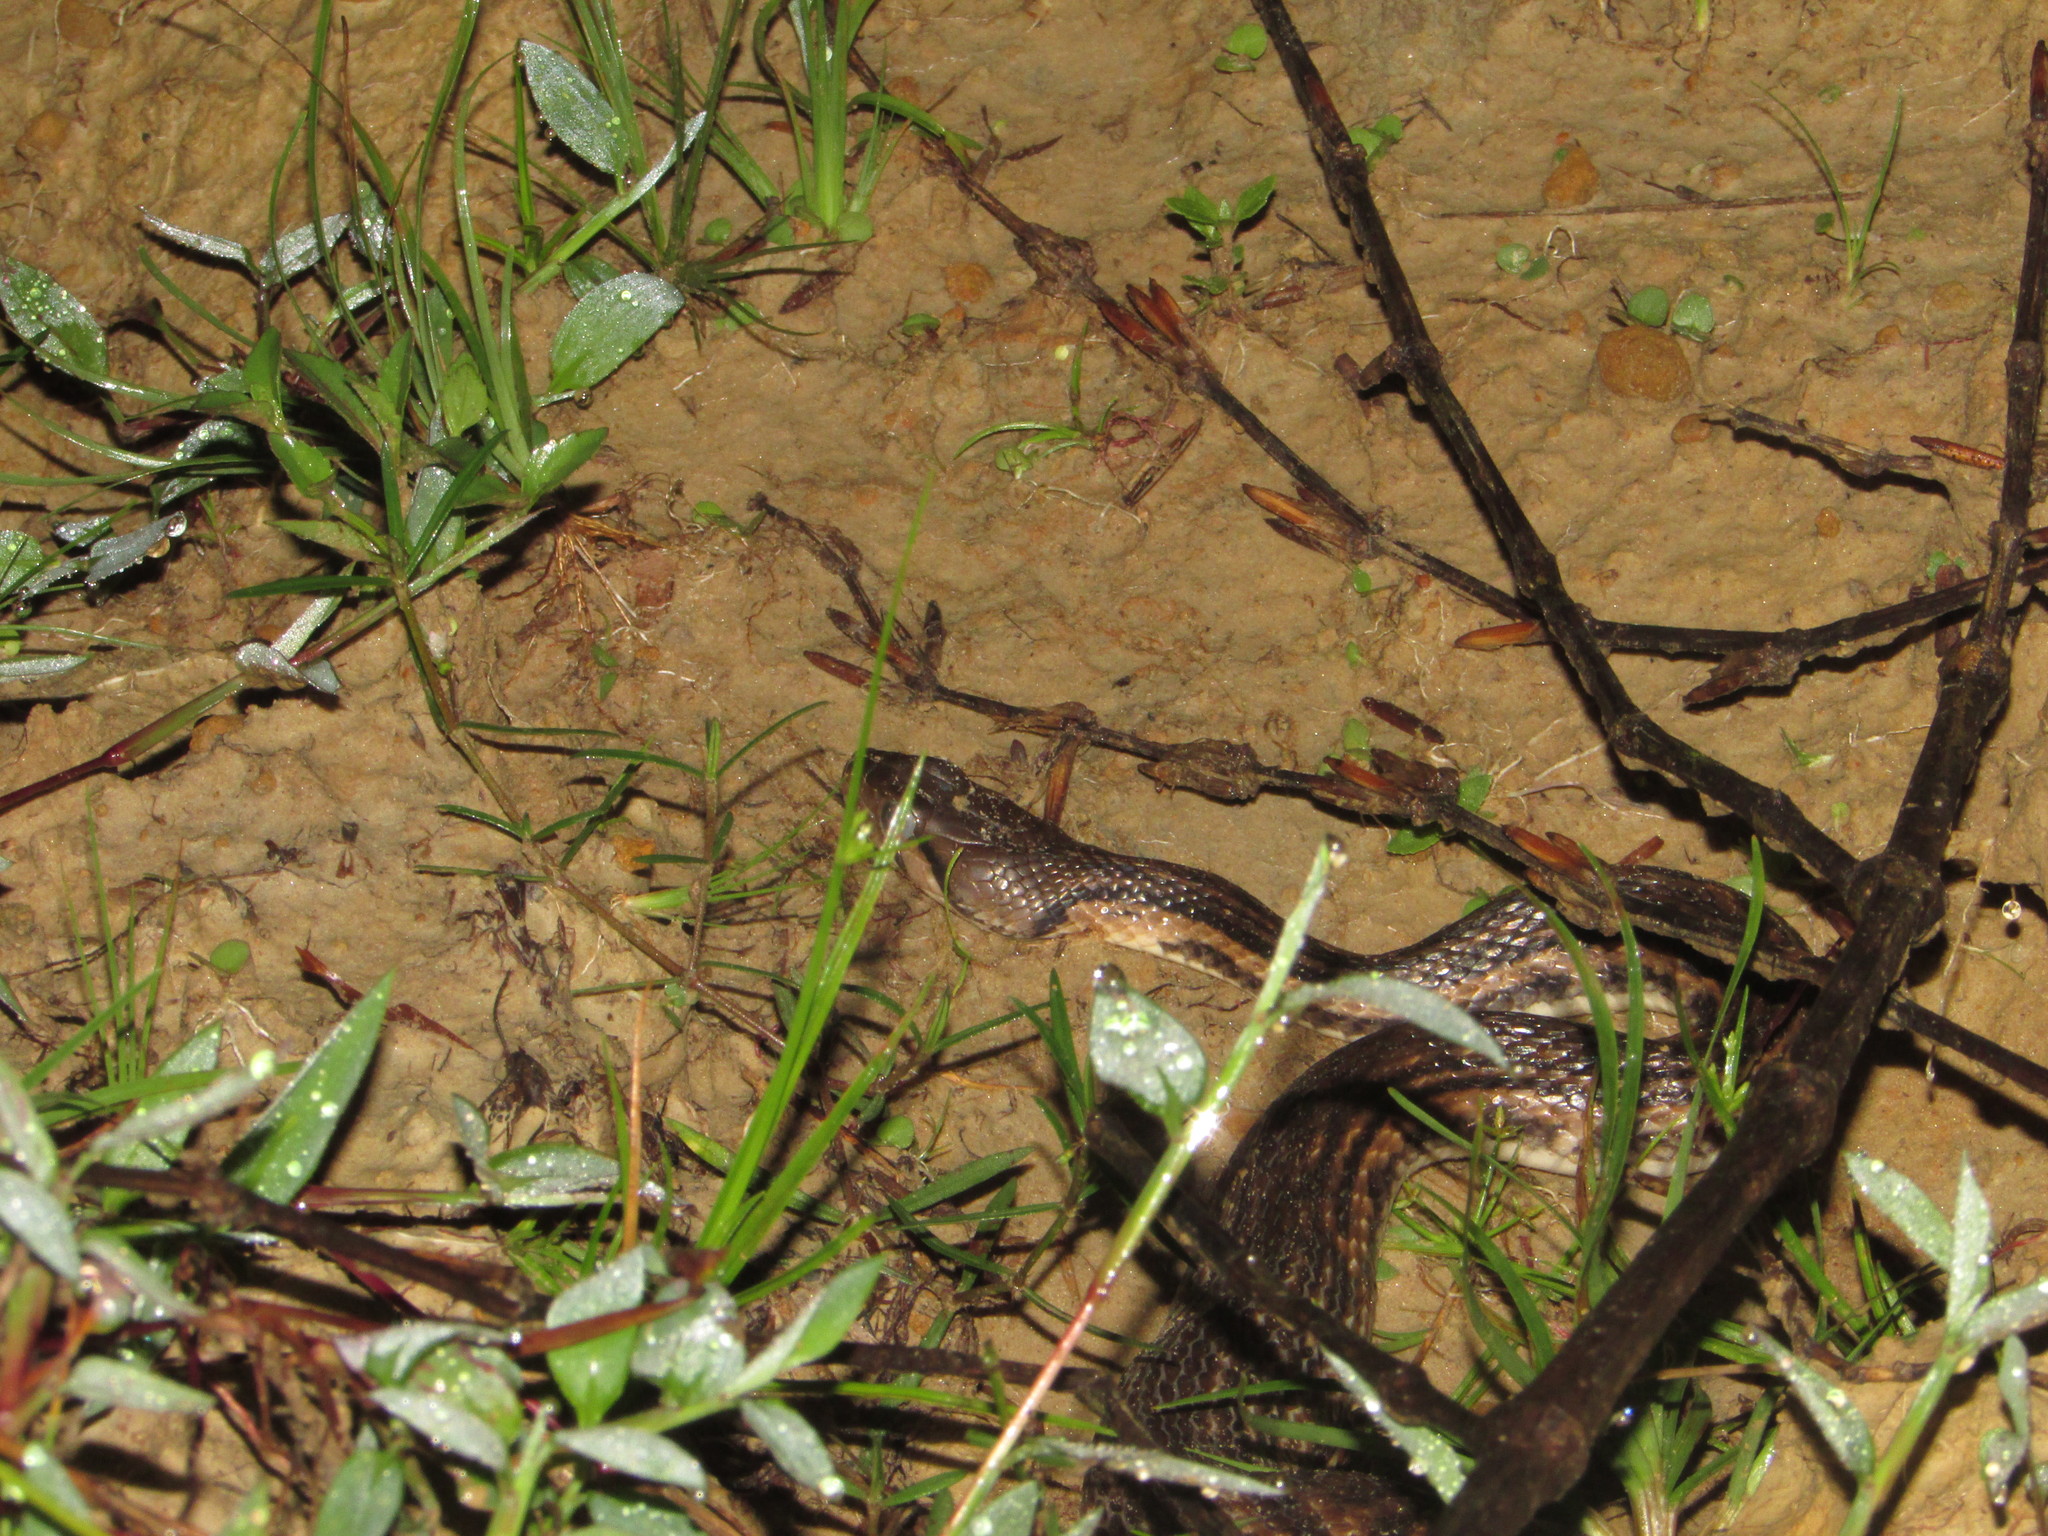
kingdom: Animalia
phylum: Chordata
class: Squamata
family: Colubridae
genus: Fowlea
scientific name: Fowlea piscator
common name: Asiatic water snake
